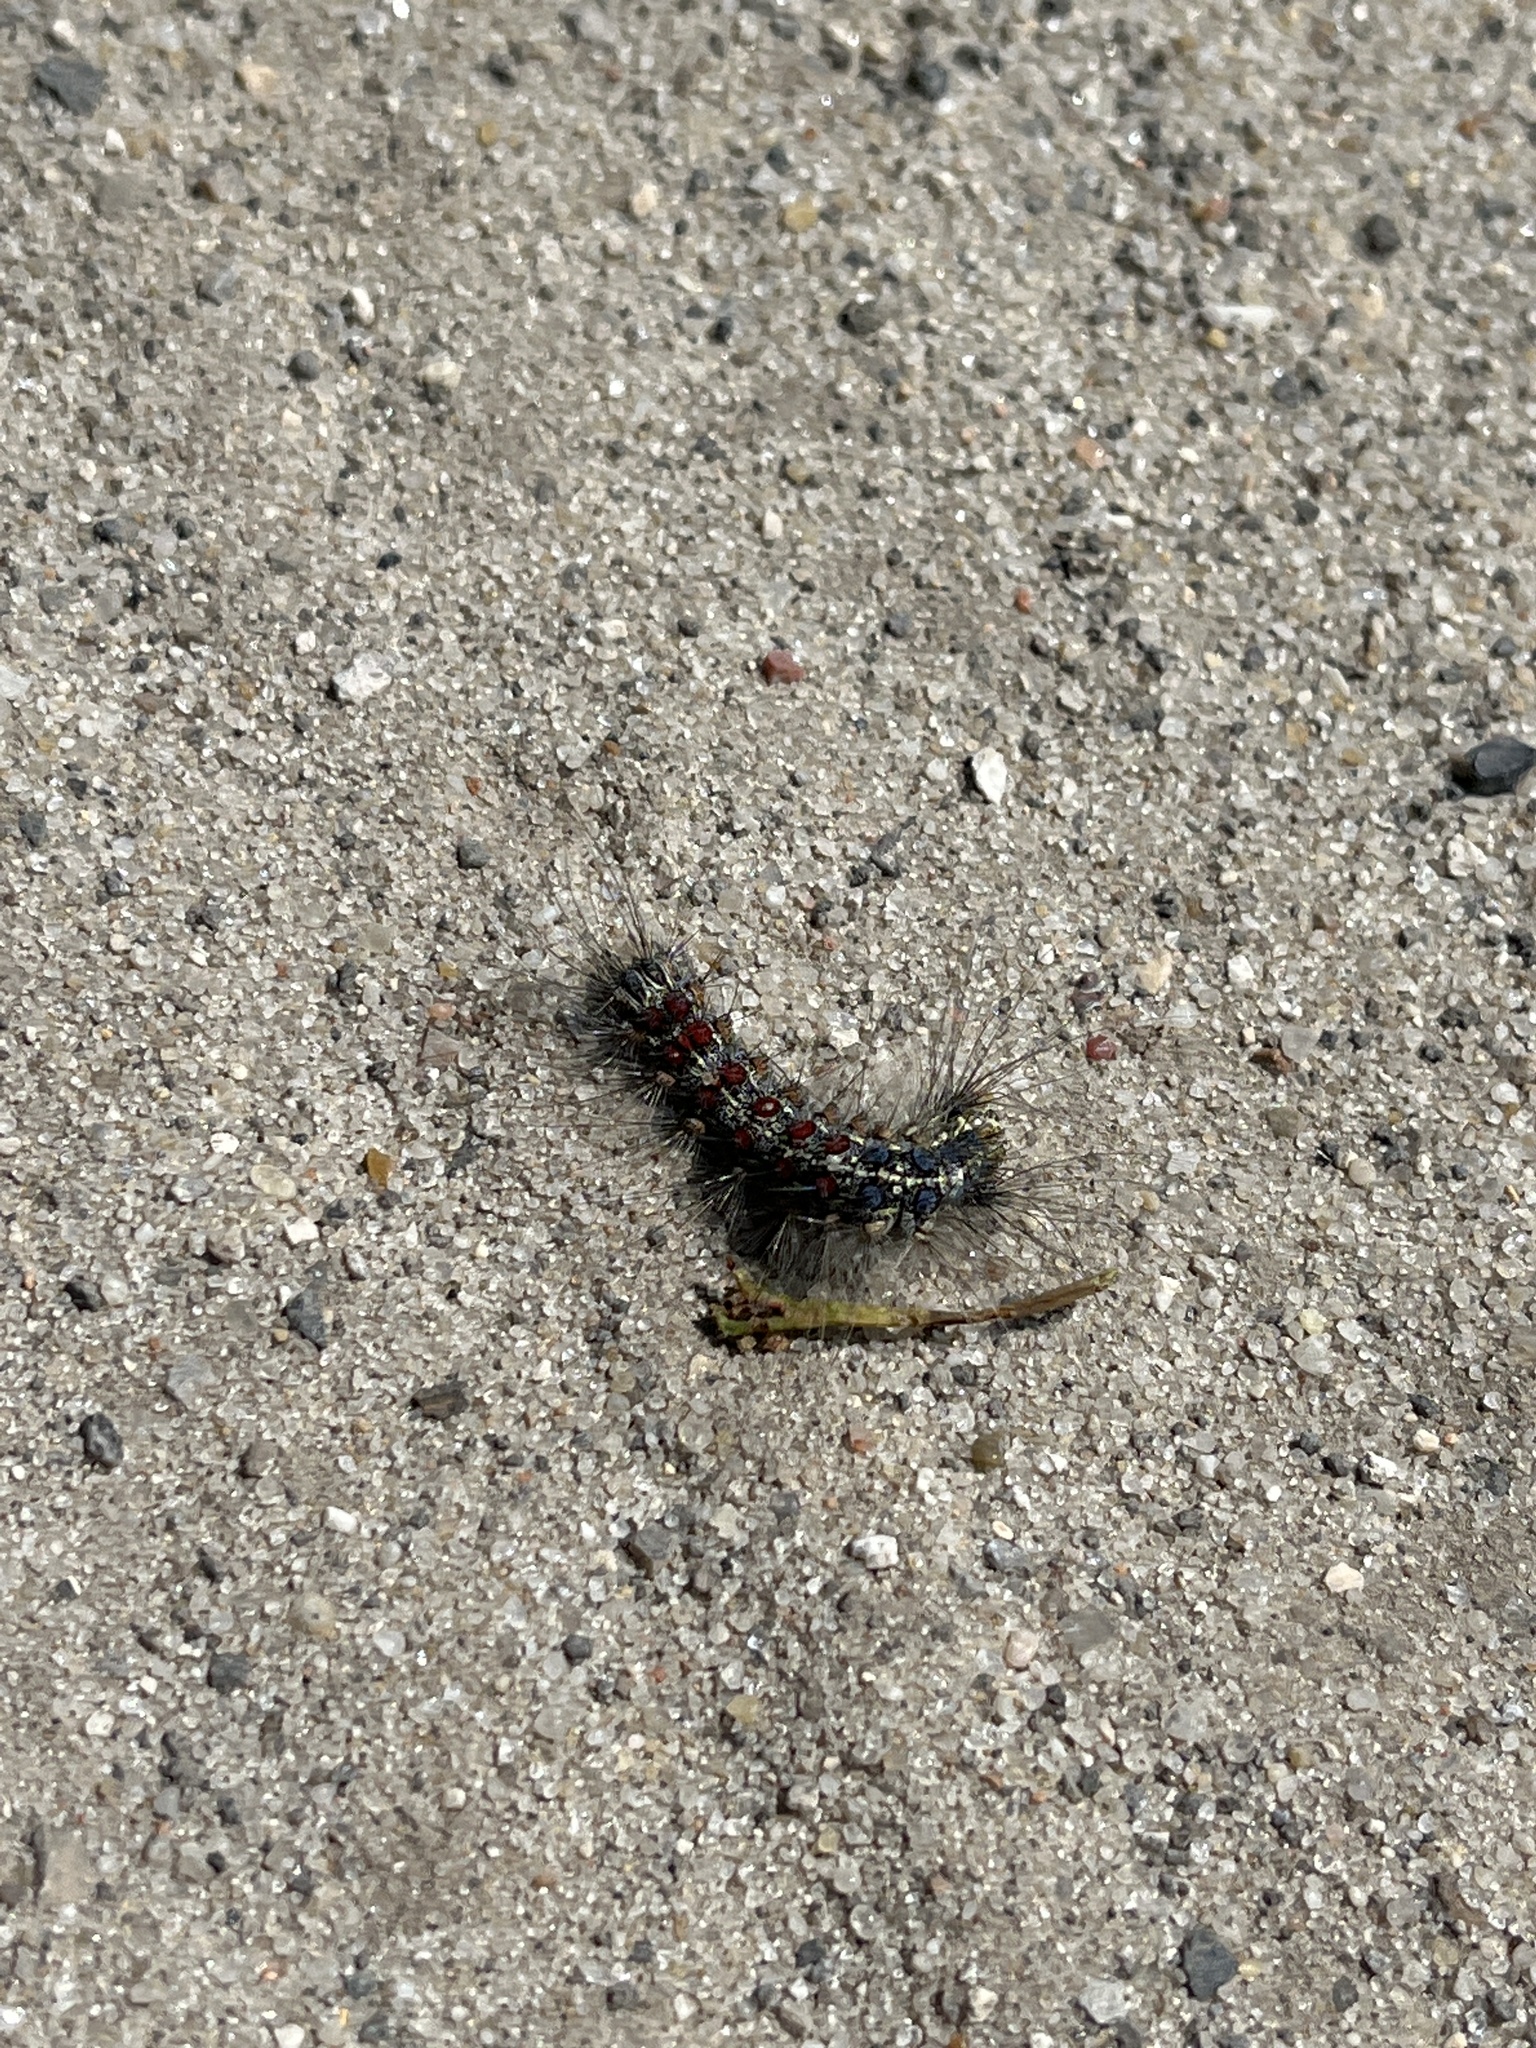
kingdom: Animalia
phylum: Arthropoda
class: Insecta
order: Lepidoptera
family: Erebidae
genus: Lymantria
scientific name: Lymantria dispar
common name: Gypsy moth
